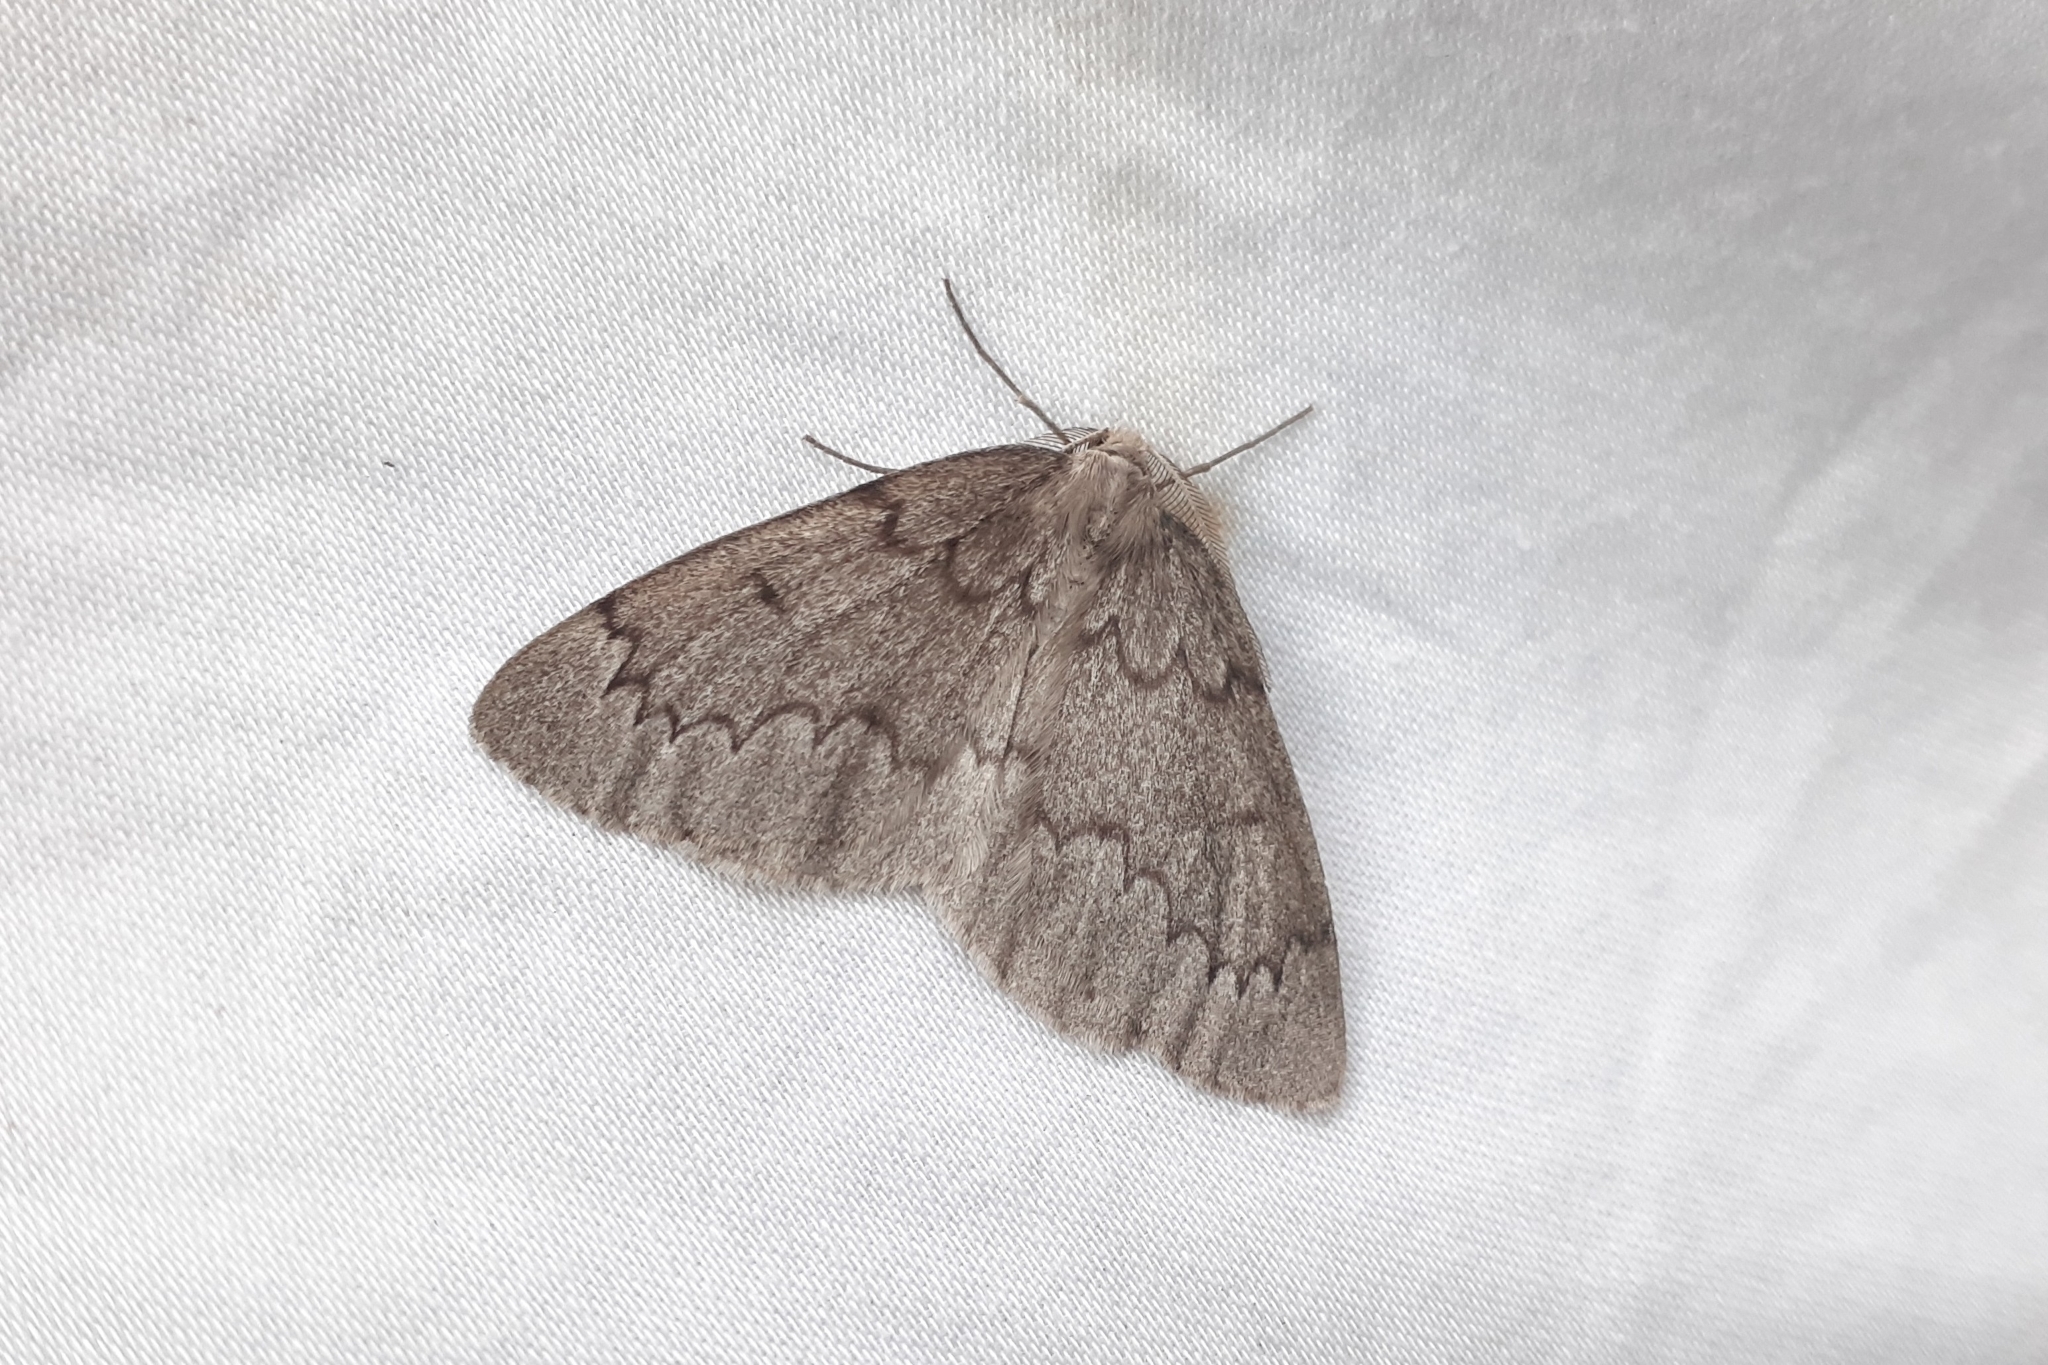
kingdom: Animalia
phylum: Arthropoda
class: Insecta
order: Lepidoptera
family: Geometridae
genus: Nepytia
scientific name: Nepytia pellucidaria
